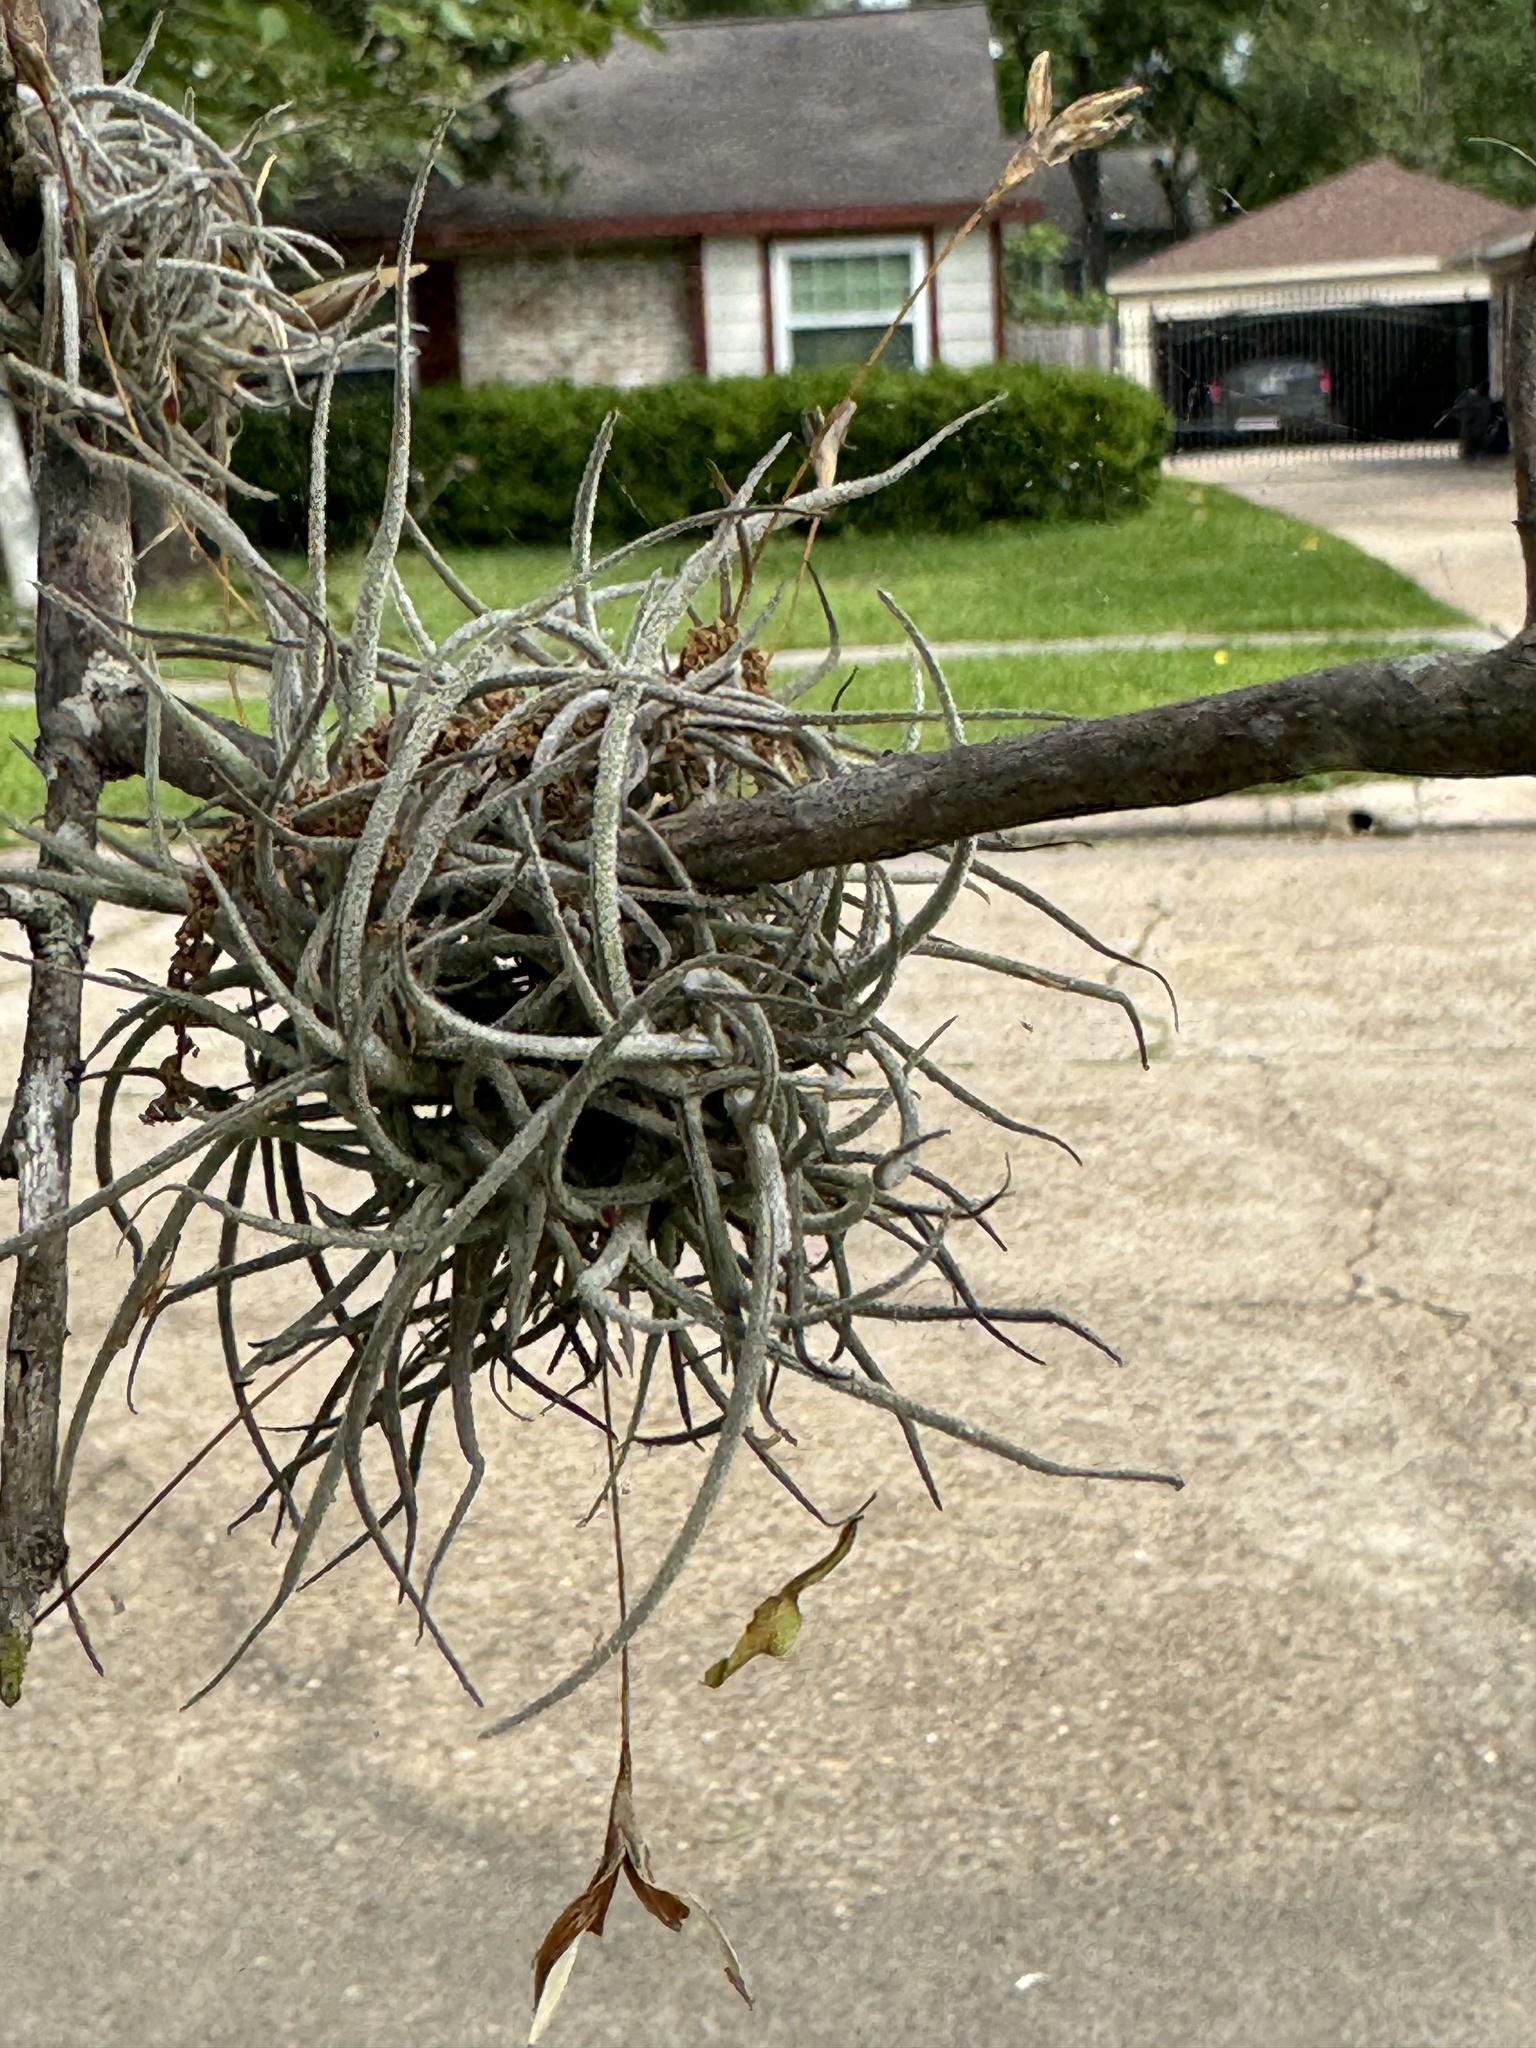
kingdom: Plantae
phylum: Tracheophyta
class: Liliopsida
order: Poales
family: Bromeliaceae
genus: Tillandsia
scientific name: Tillandsia recurvata
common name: Small ballmoss
